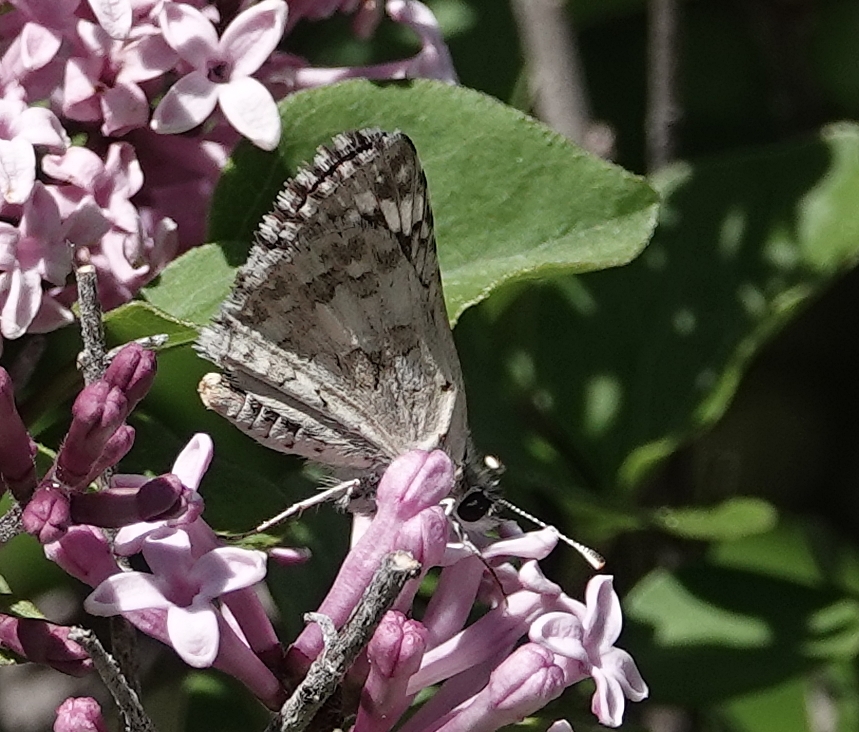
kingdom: Animalia
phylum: Arthropoda
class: Insecta
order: Lepidoptera
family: Hesperiidae
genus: Burnsius
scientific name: Burnsius communis
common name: Common checkered-skipper
